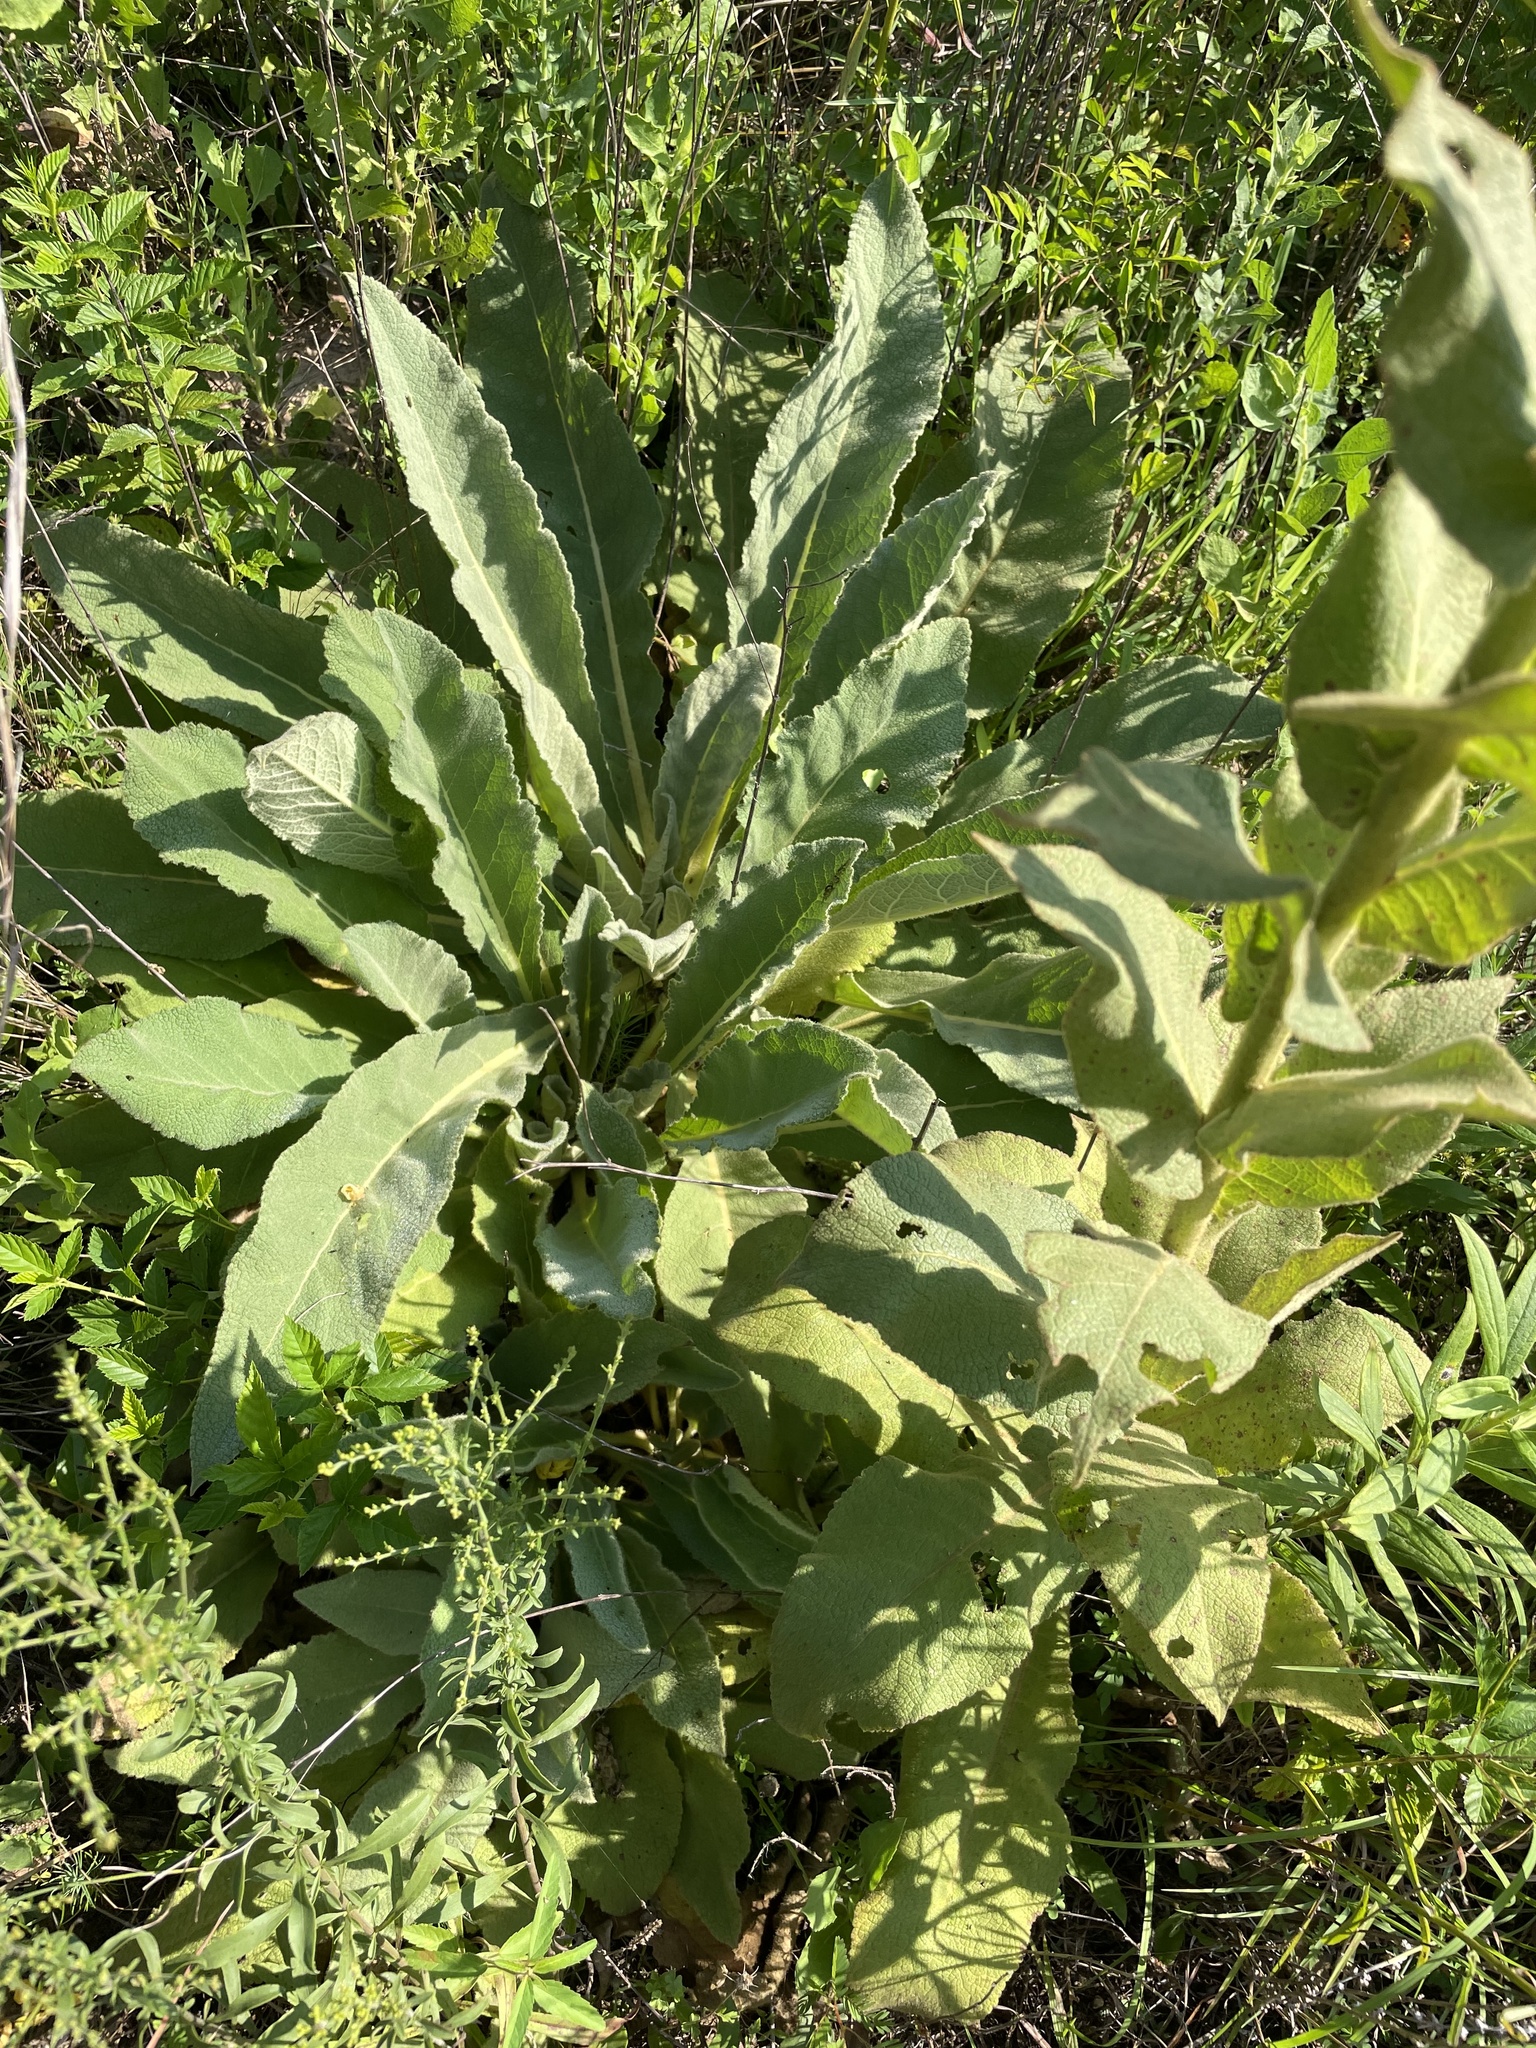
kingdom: Plantae
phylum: Tracheophyta
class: Magnoliopsida
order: Lamiales
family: Scrophulariaceae
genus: Verbascum
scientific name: Verbascum phlomoides
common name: Orange mullein
